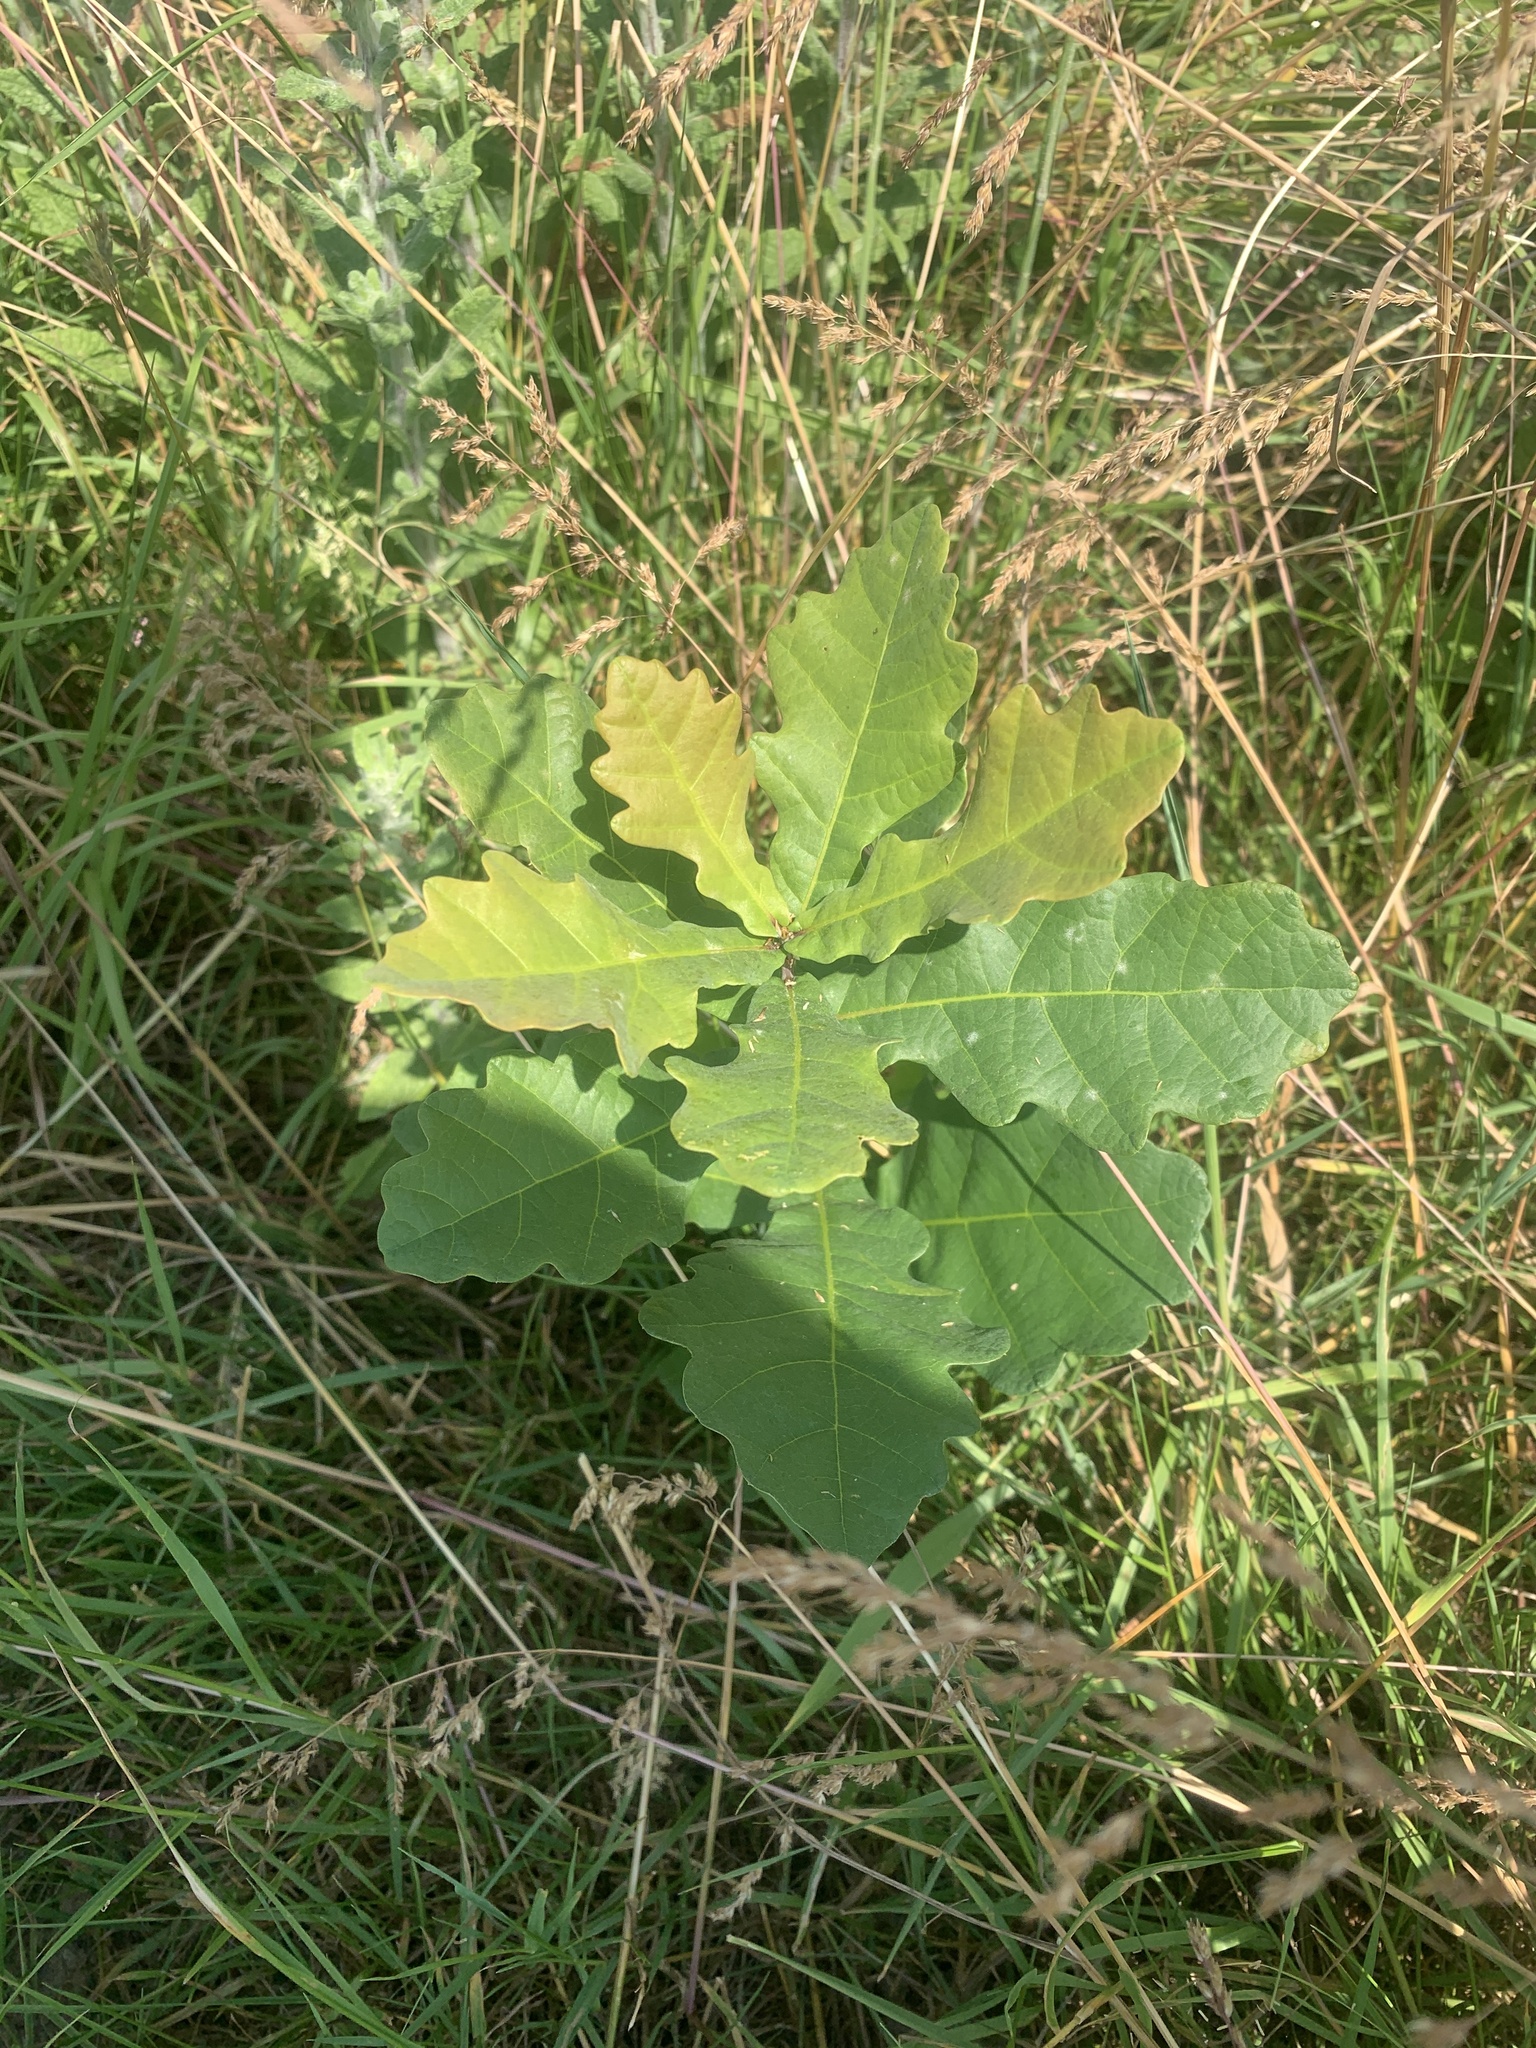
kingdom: Plantae
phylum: Tracheophyta
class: Magnoliopsida
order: Fagales
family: Fagaceae
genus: Quercus
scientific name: Quercus robur
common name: Pedunculate oak
